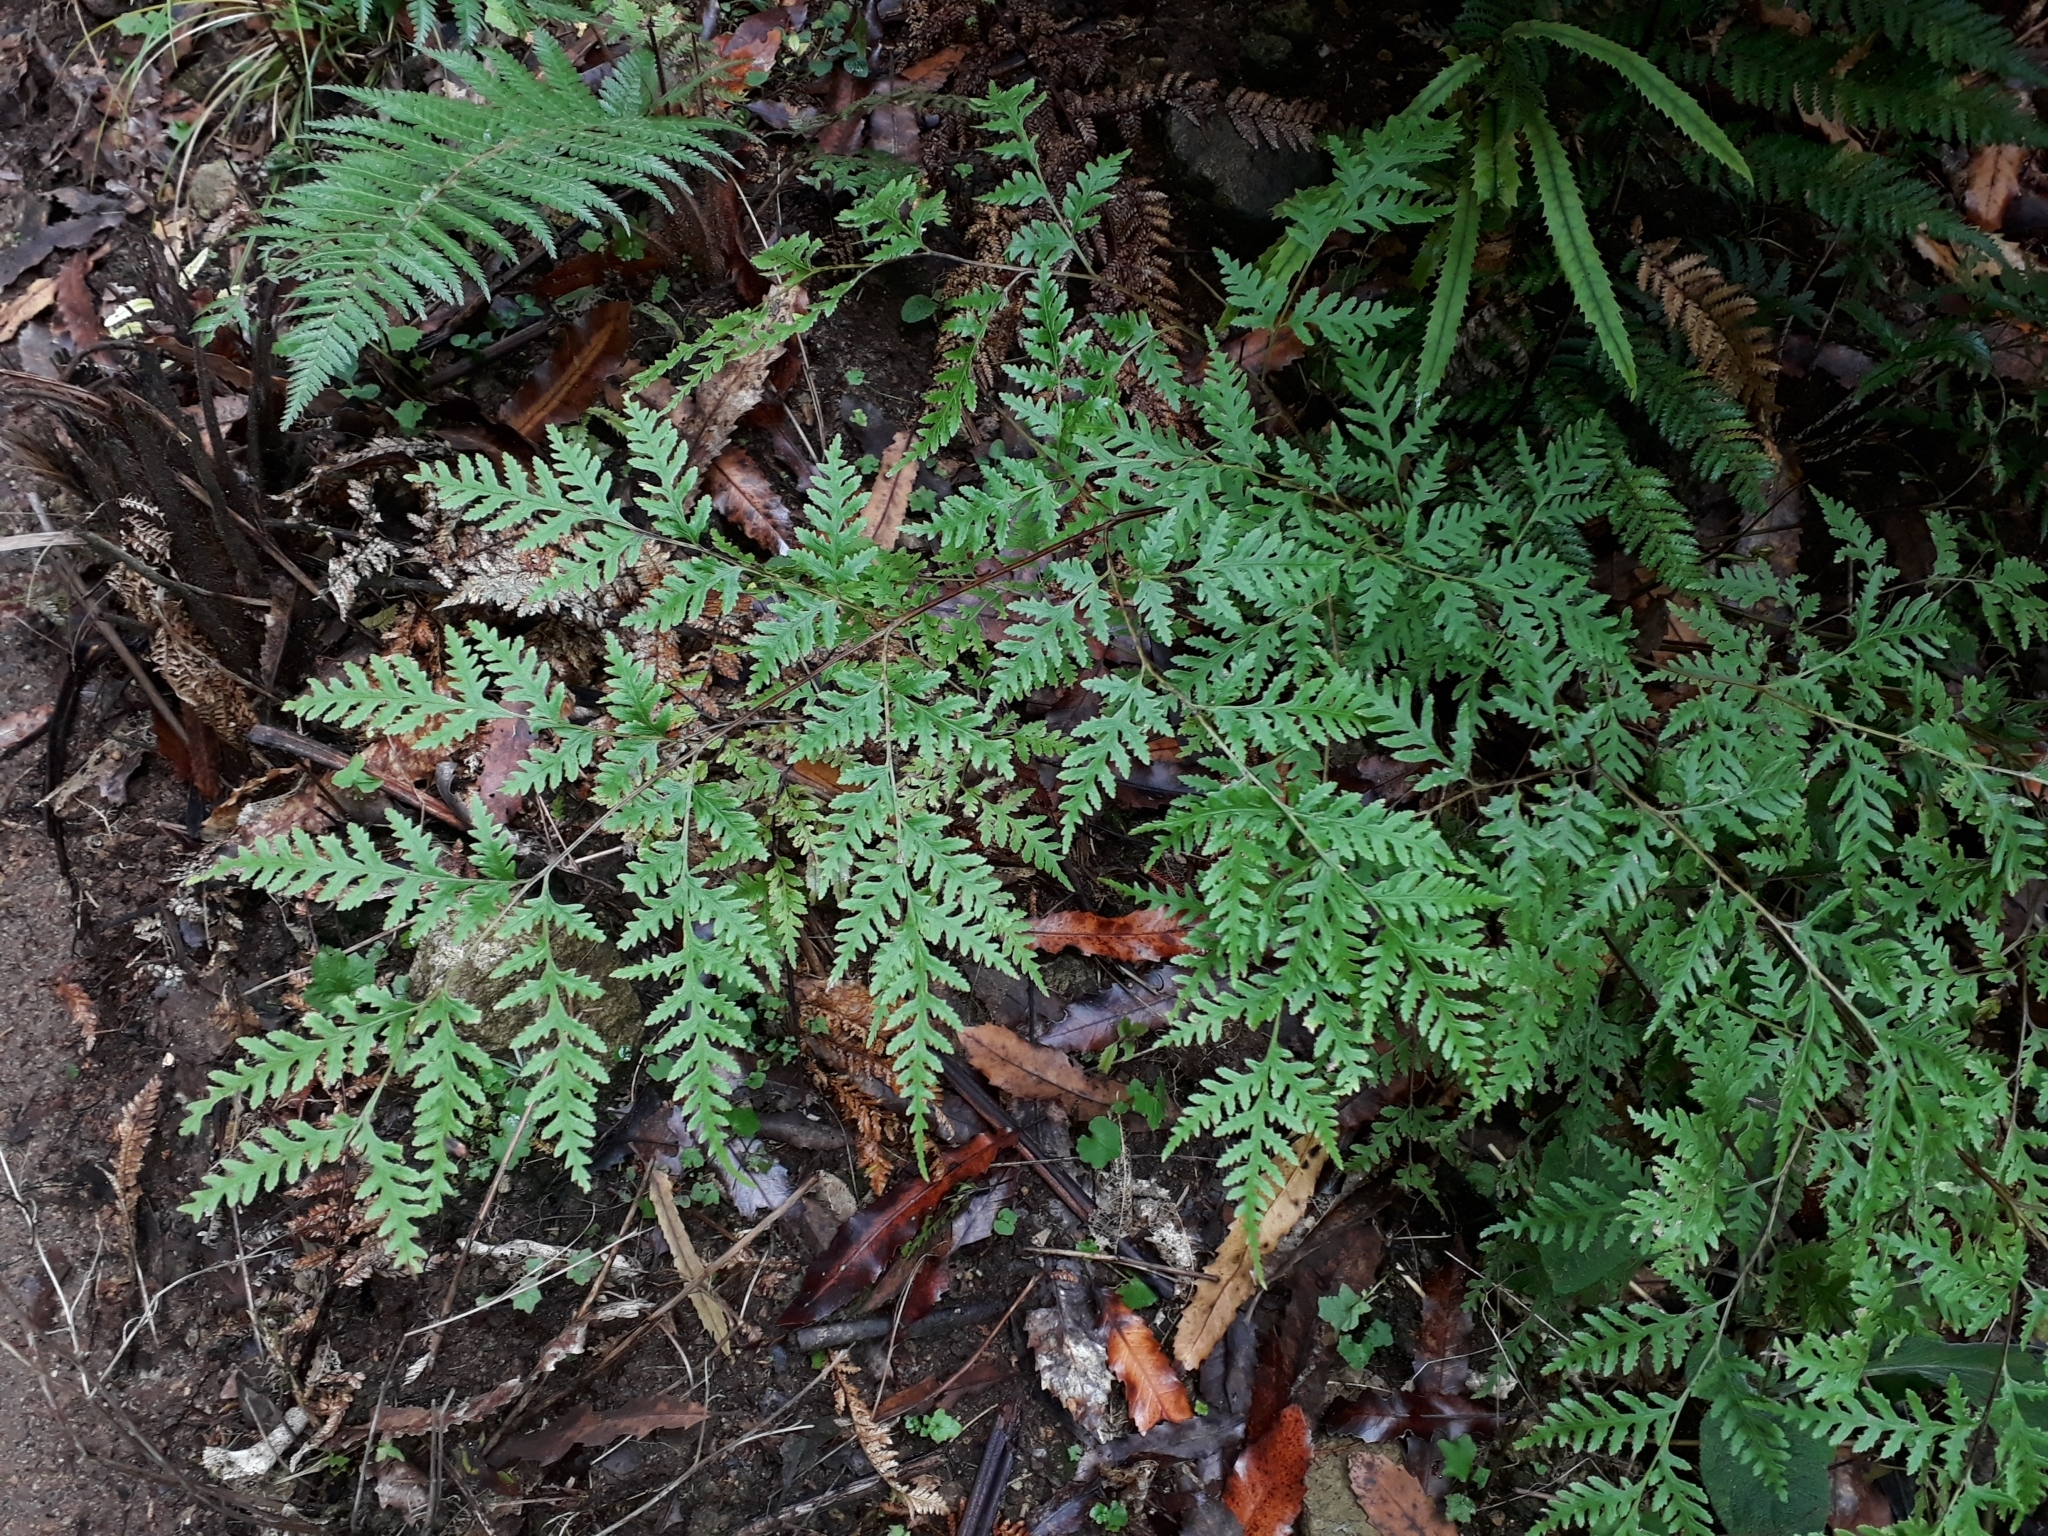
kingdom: Plantae
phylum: Tracheophyta
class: Polypodiopsida
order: Polypodiales
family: Pteridaceae
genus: Pteris
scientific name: Pteris macilenta
